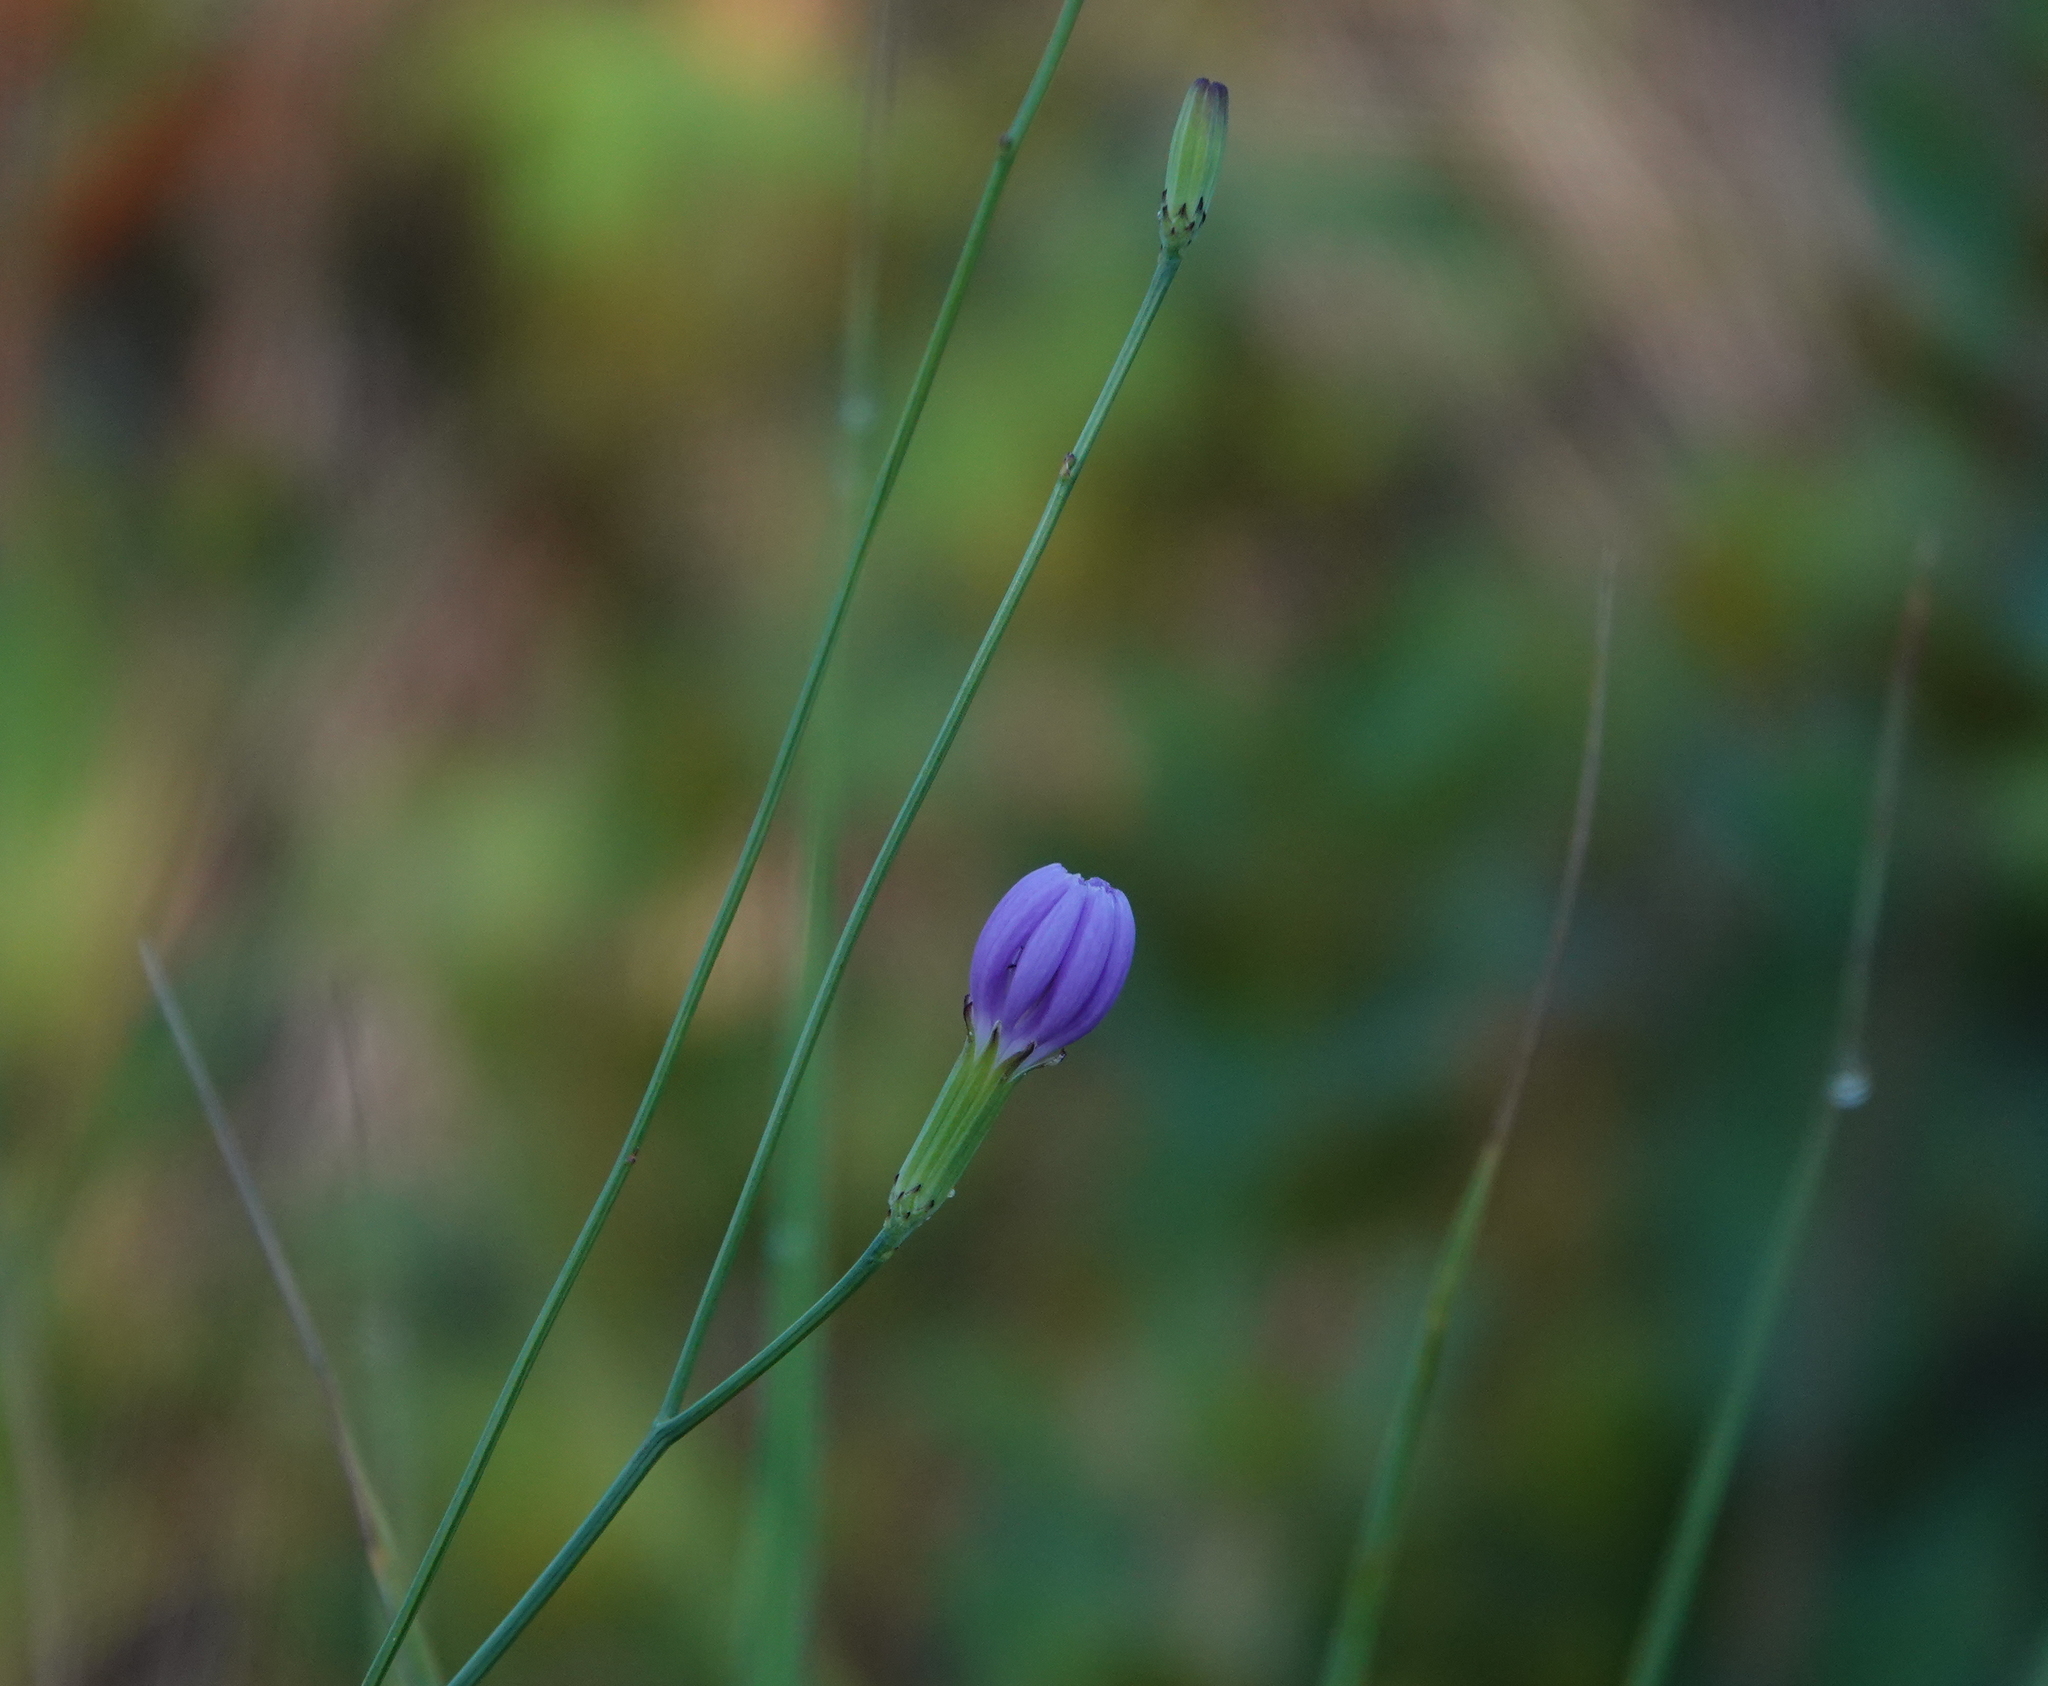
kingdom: Plantae
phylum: Tracheophyta
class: Magnoliopsida
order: Asterales
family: Asteraceae
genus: Lygodesmia
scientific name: Lygodesmia aphylla
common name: Rose-rush
